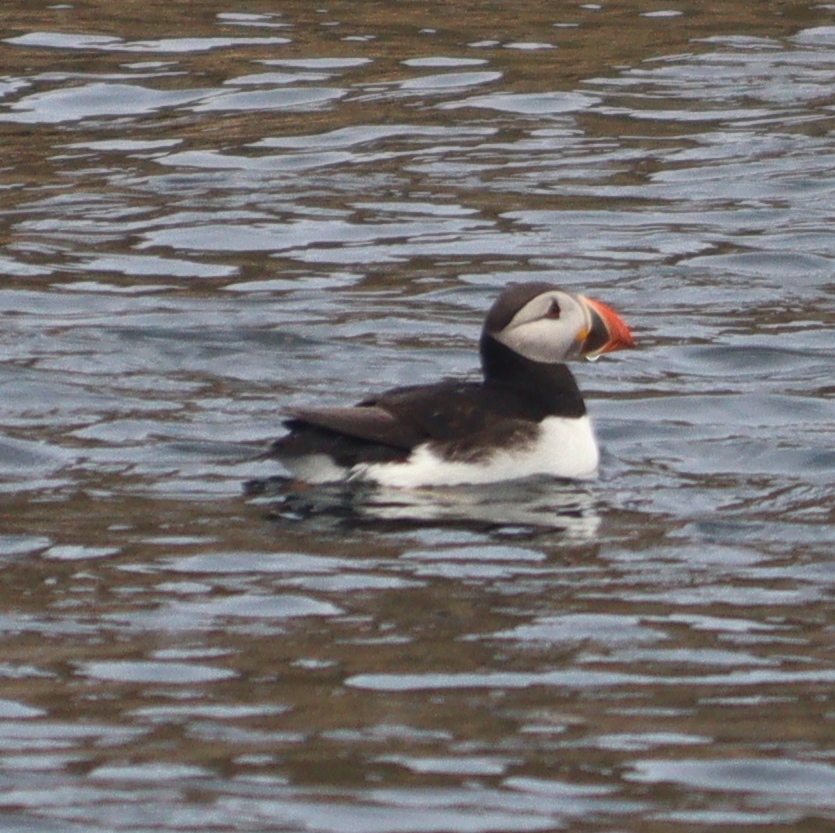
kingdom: Animalia
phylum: Chordata
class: Aves
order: Charadriiformes
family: Alcidae
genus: Fratercula
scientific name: Fratercula arctica
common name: Atlantic puffin
